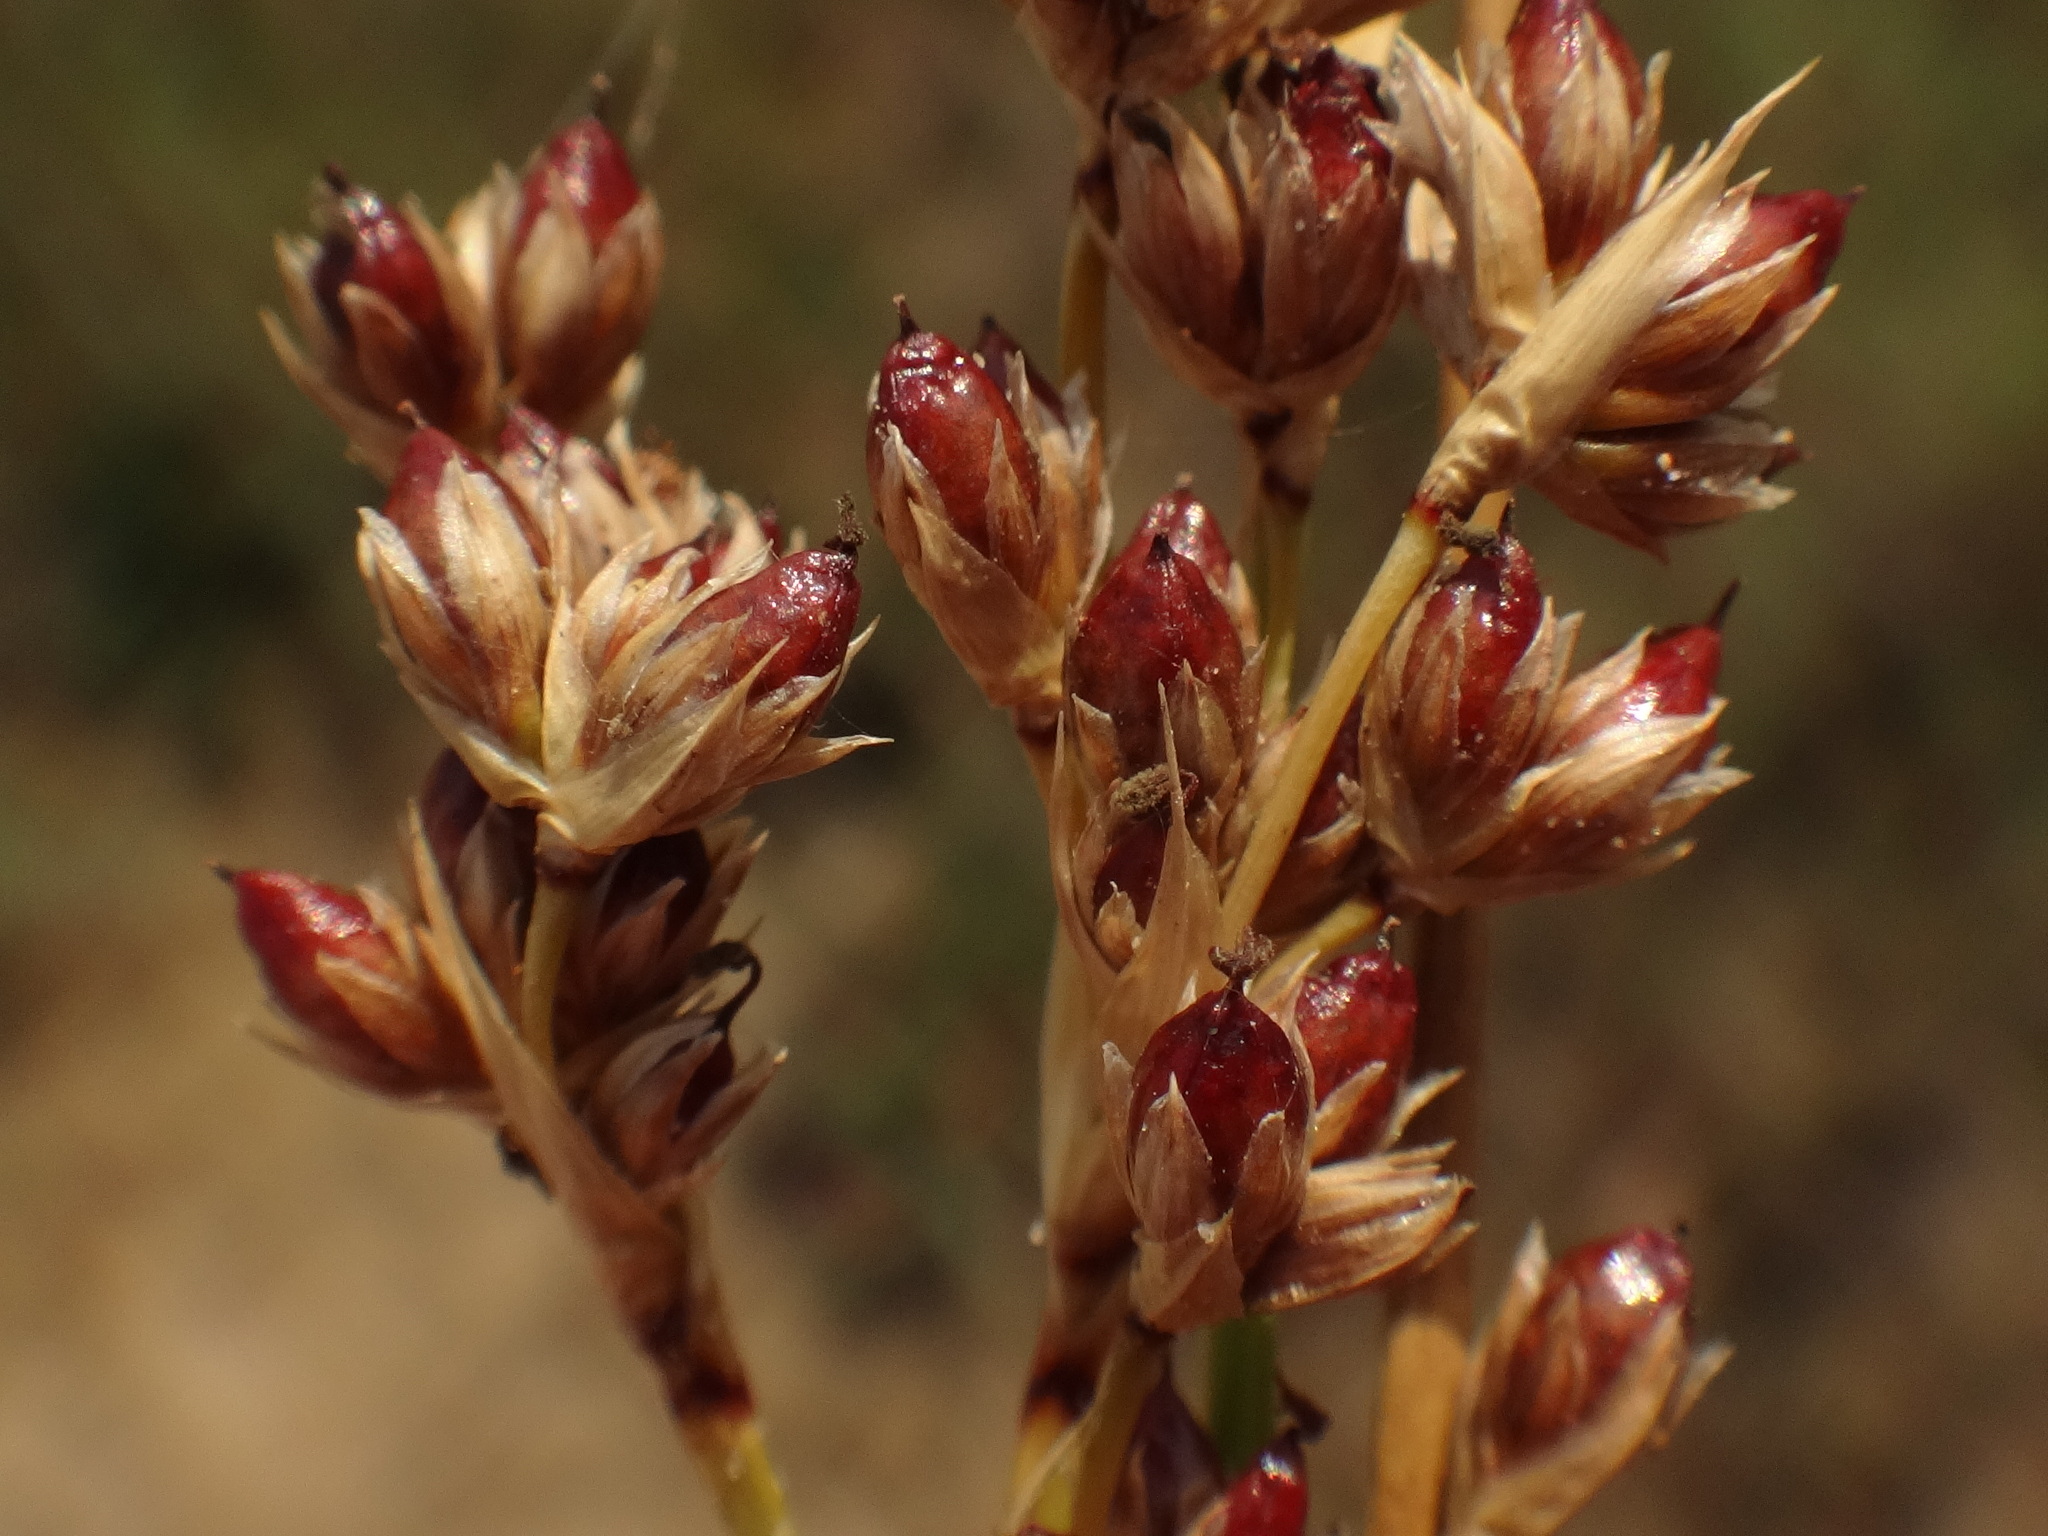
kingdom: Plantae
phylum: Tracheophyta
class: Liliopsida
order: Poales
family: Juncaceae
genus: Juncus
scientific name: Juncus maritimus
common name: Sea rush
